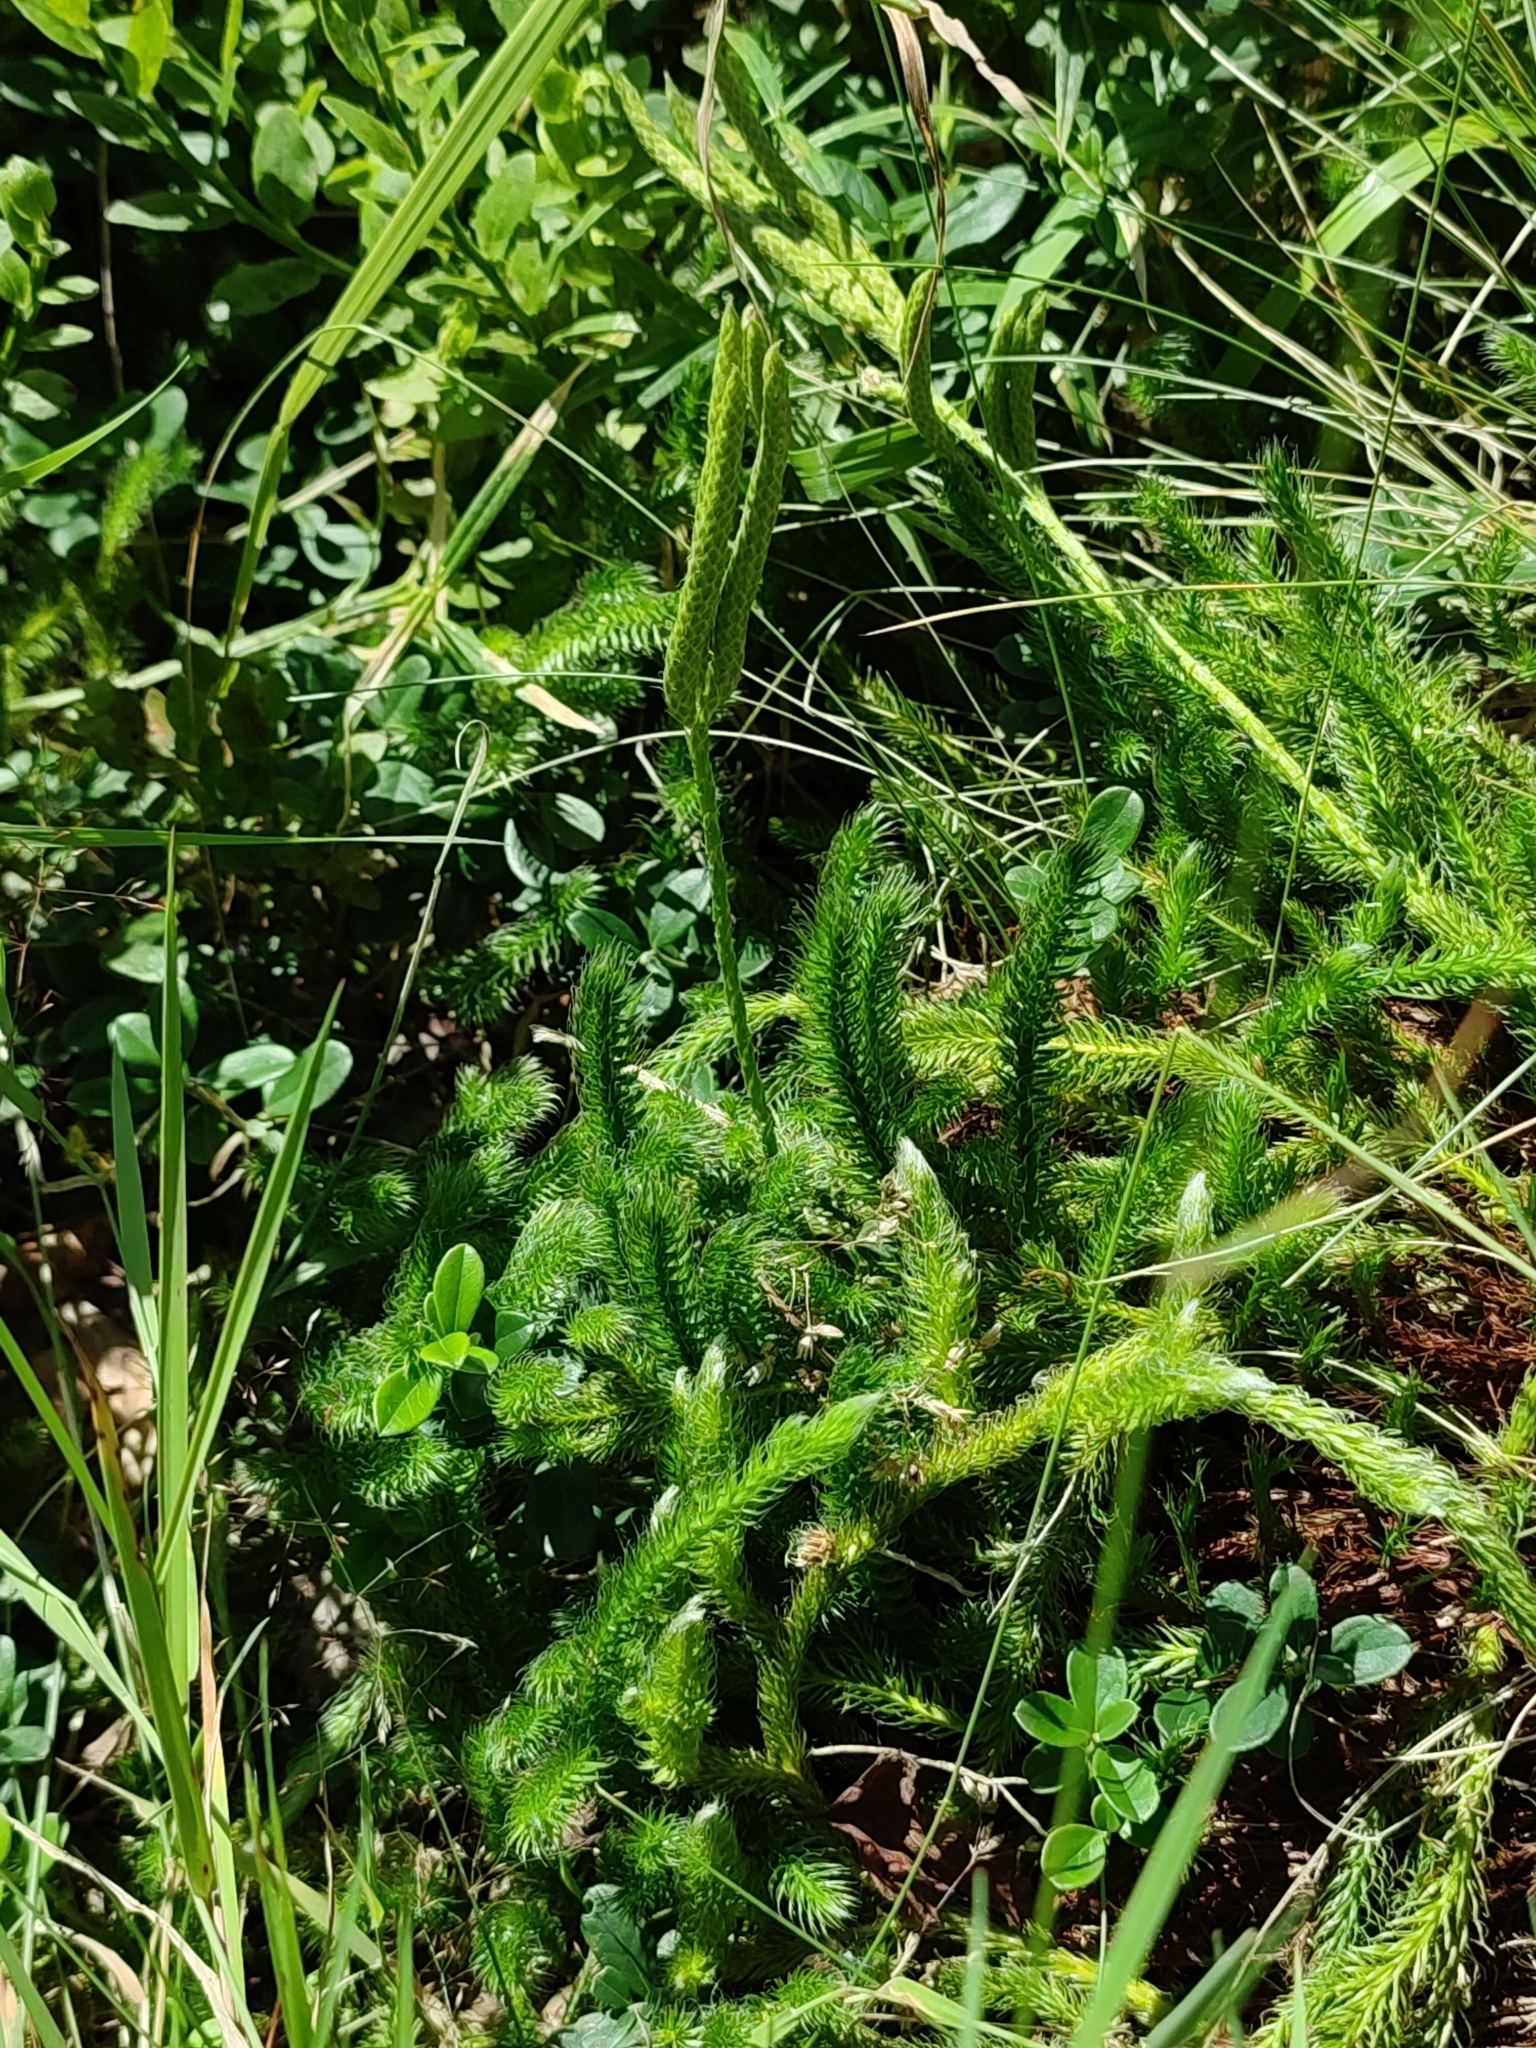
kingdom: Plantae
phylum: Tracheophyta
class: Lycopodiopsida
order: Lycopodiales
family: Lycopodiaceae
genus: Lycopodium
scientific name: Lycopodium clavatum
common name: Stag's-horn clubmoss
